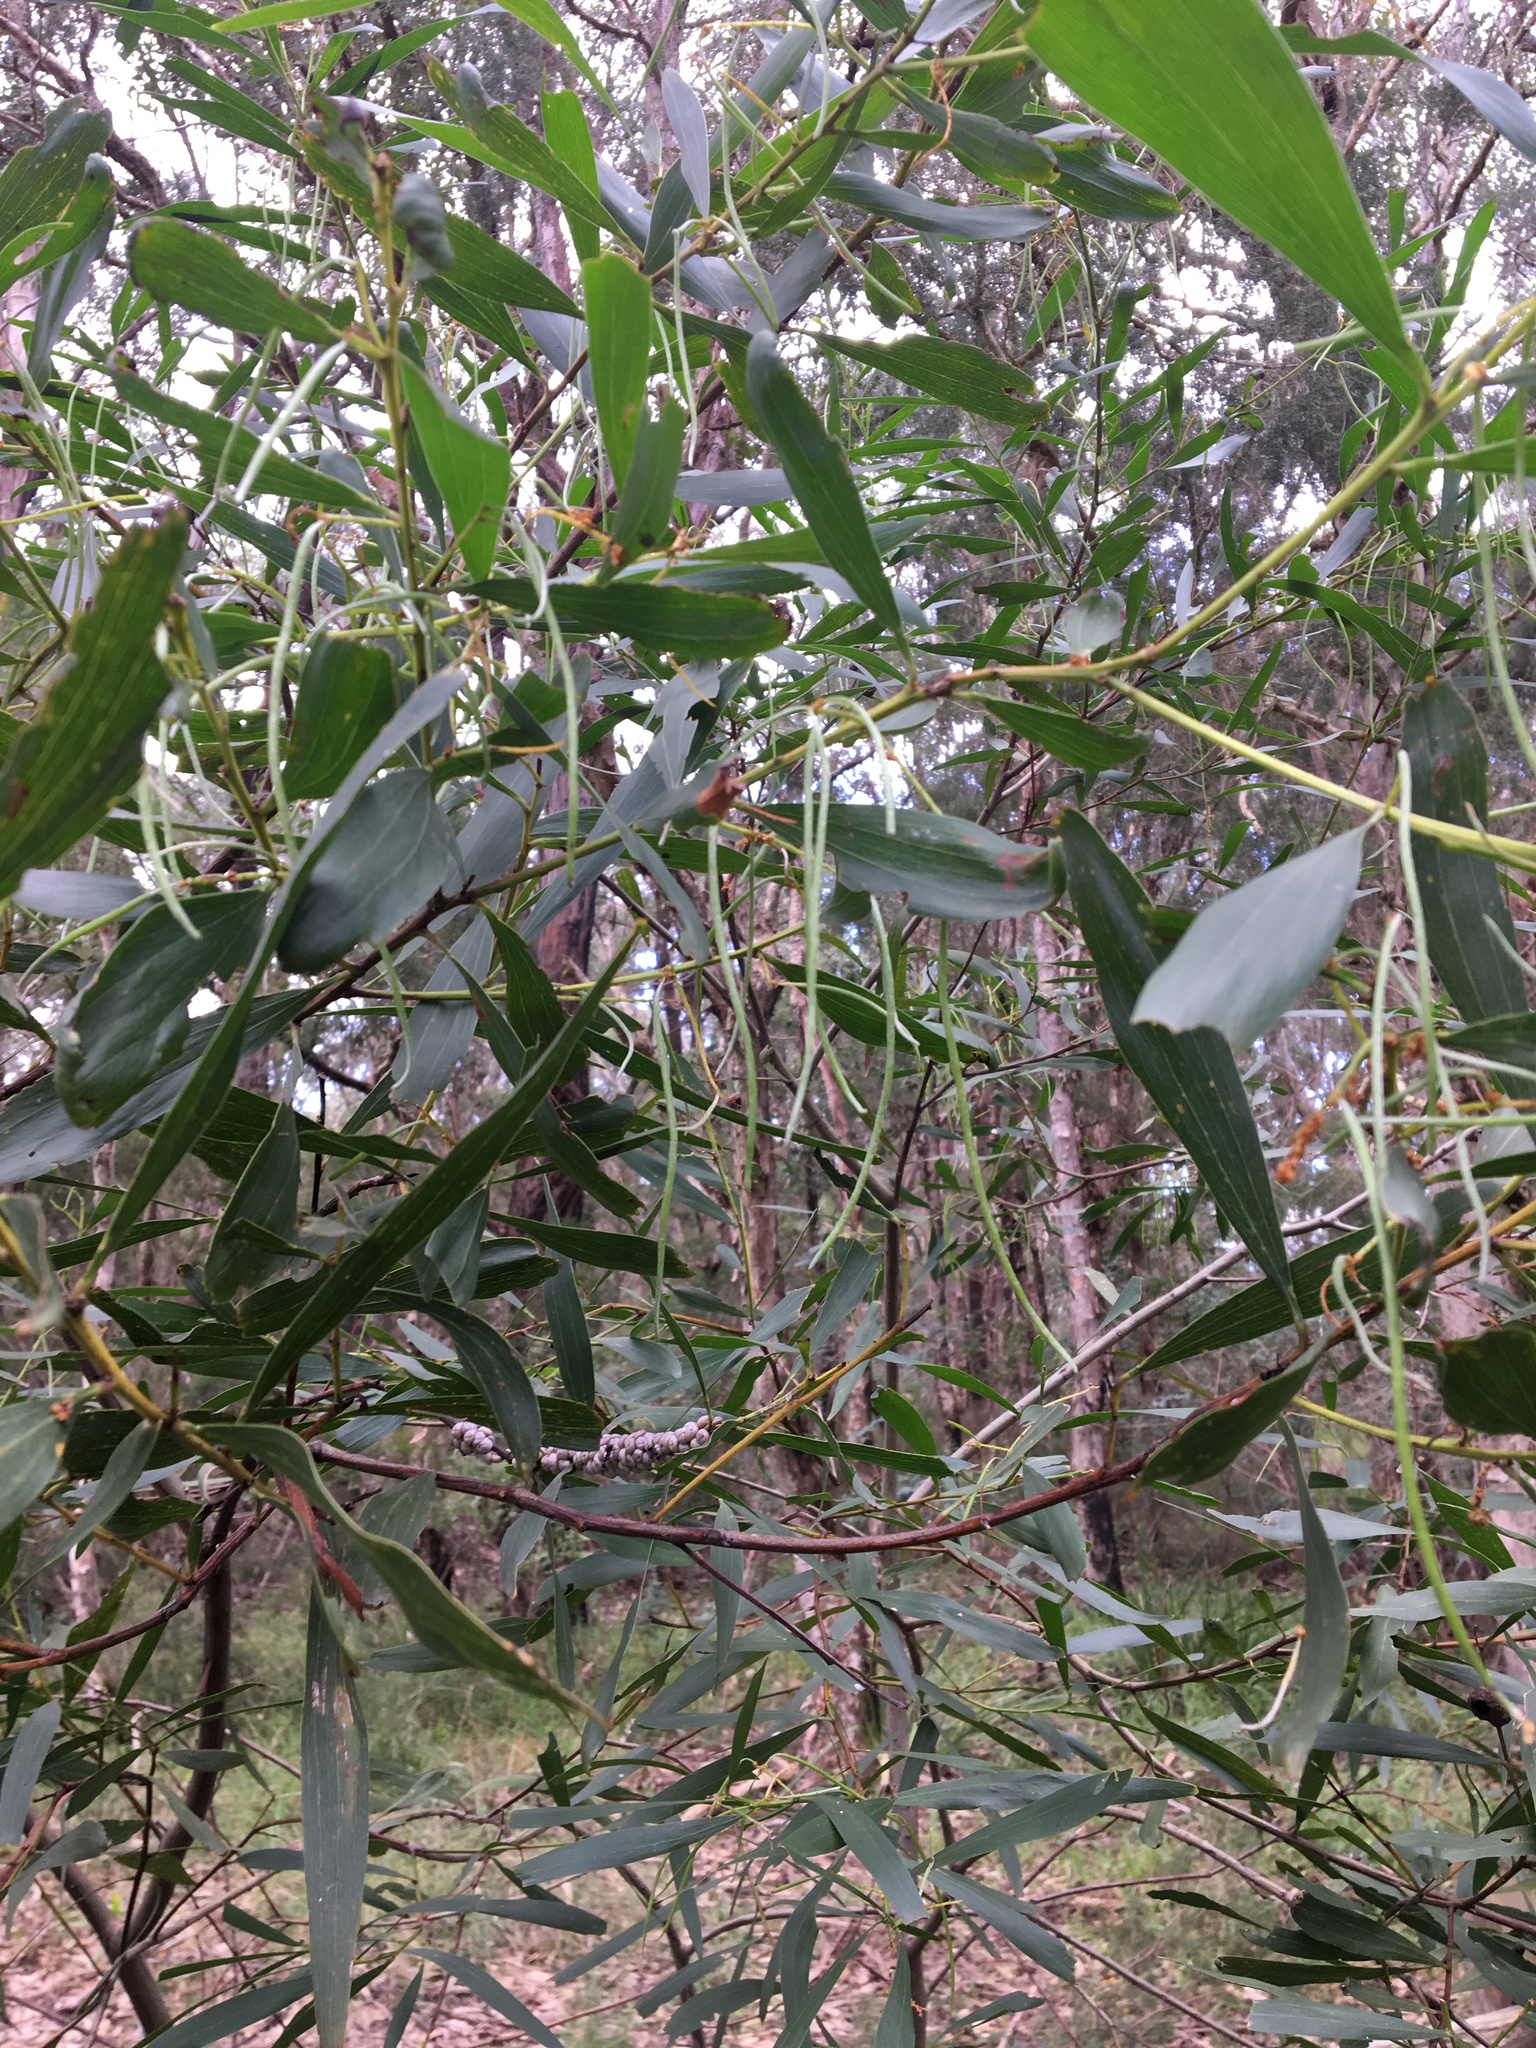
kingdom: Plantae
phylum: Tracheophyta
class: Magnoliopsida
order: Fabales
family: Fabaceae
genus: Acacia
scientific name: Acacia longifolia
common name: Sydney golden wattle
